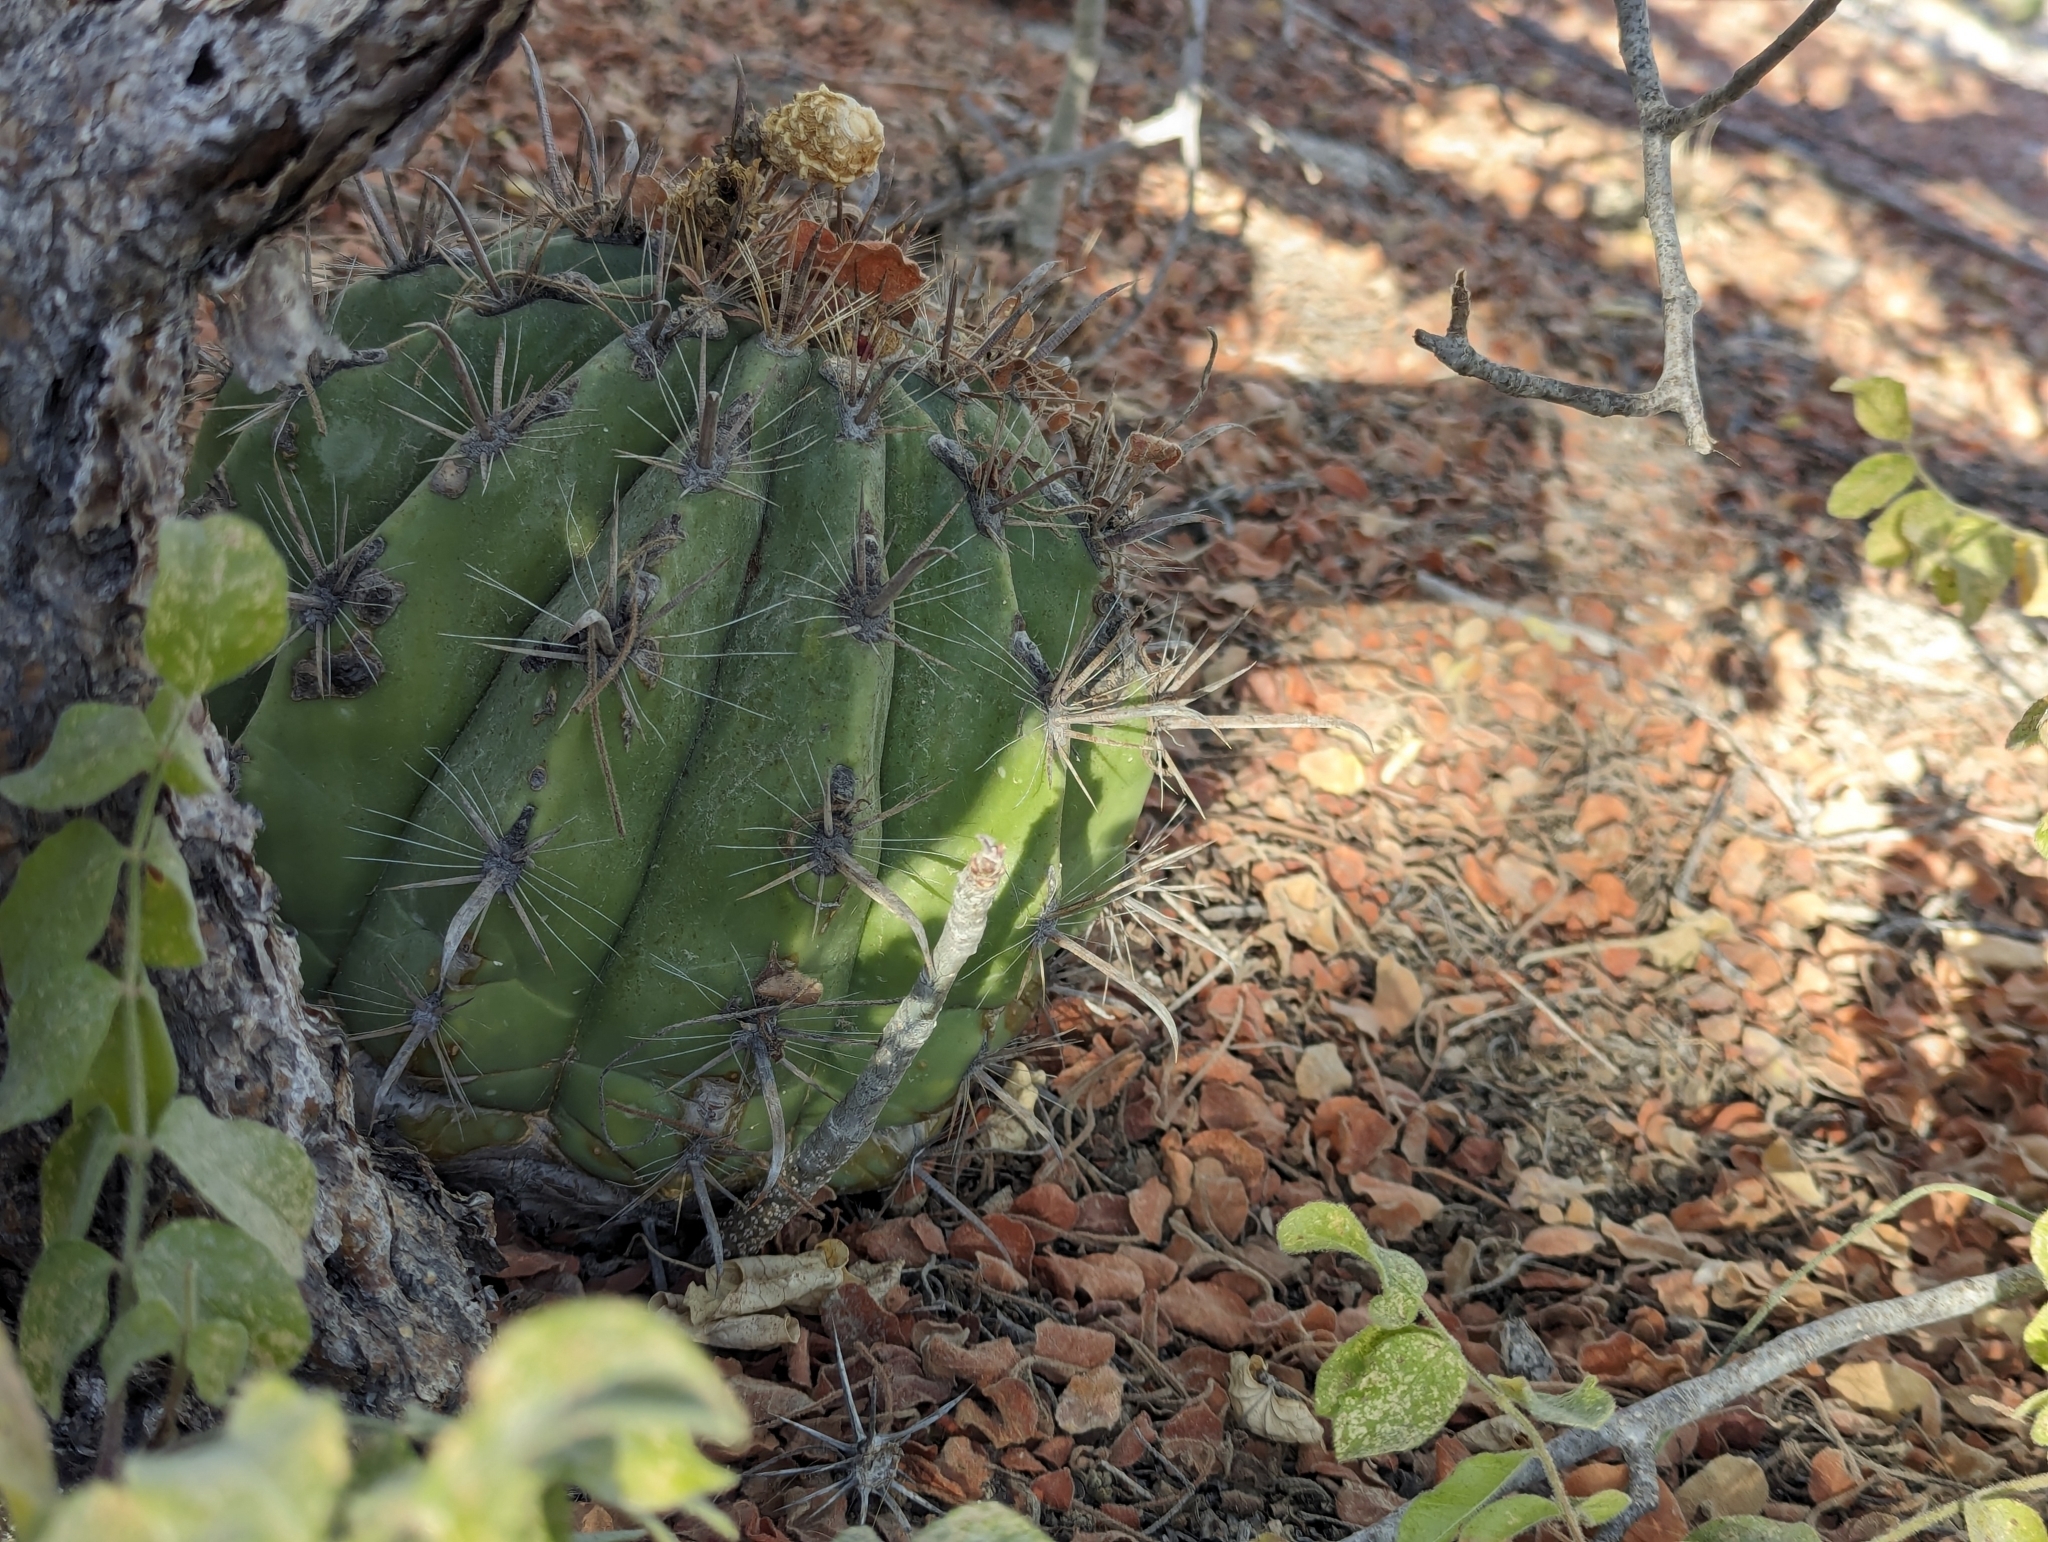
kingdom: Plantae
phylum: Tracheophyta
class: Magnoliopsida
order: Caryophyllales
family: Cactaceae
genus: Ferocactus
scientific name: Ferocactus townsendianus
